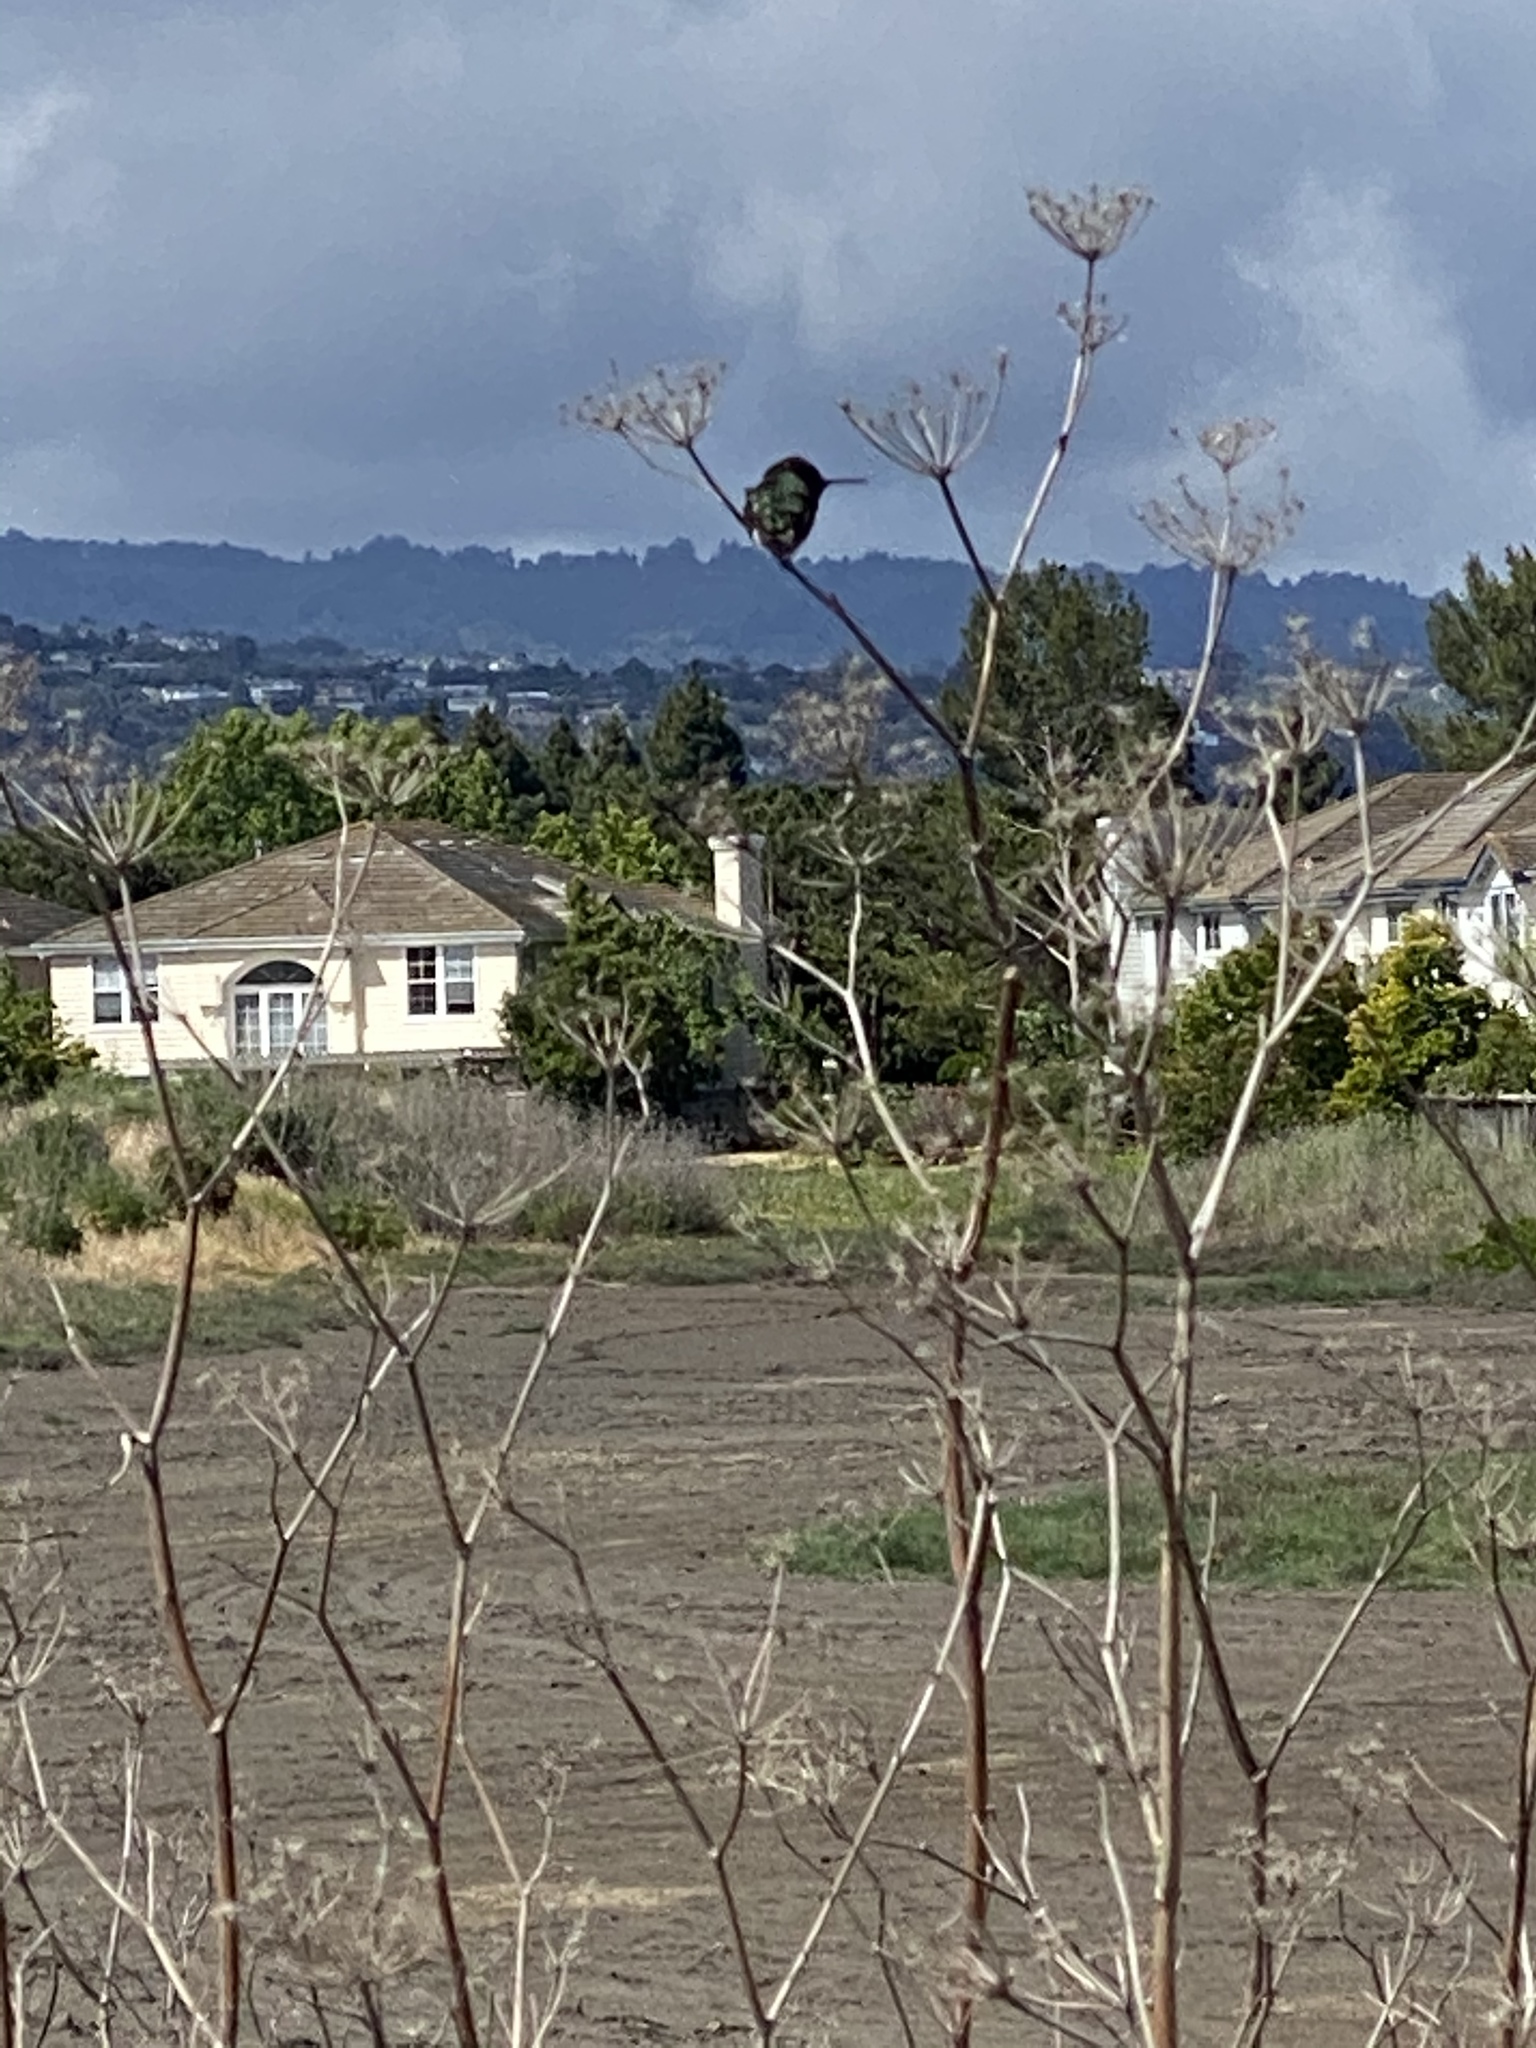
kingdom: Animalia
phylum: Chordata
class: Aves
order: Apodiformes
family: Trochilidae
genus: Calypte
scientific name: Calypte anna
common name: Anna's hummingbird
